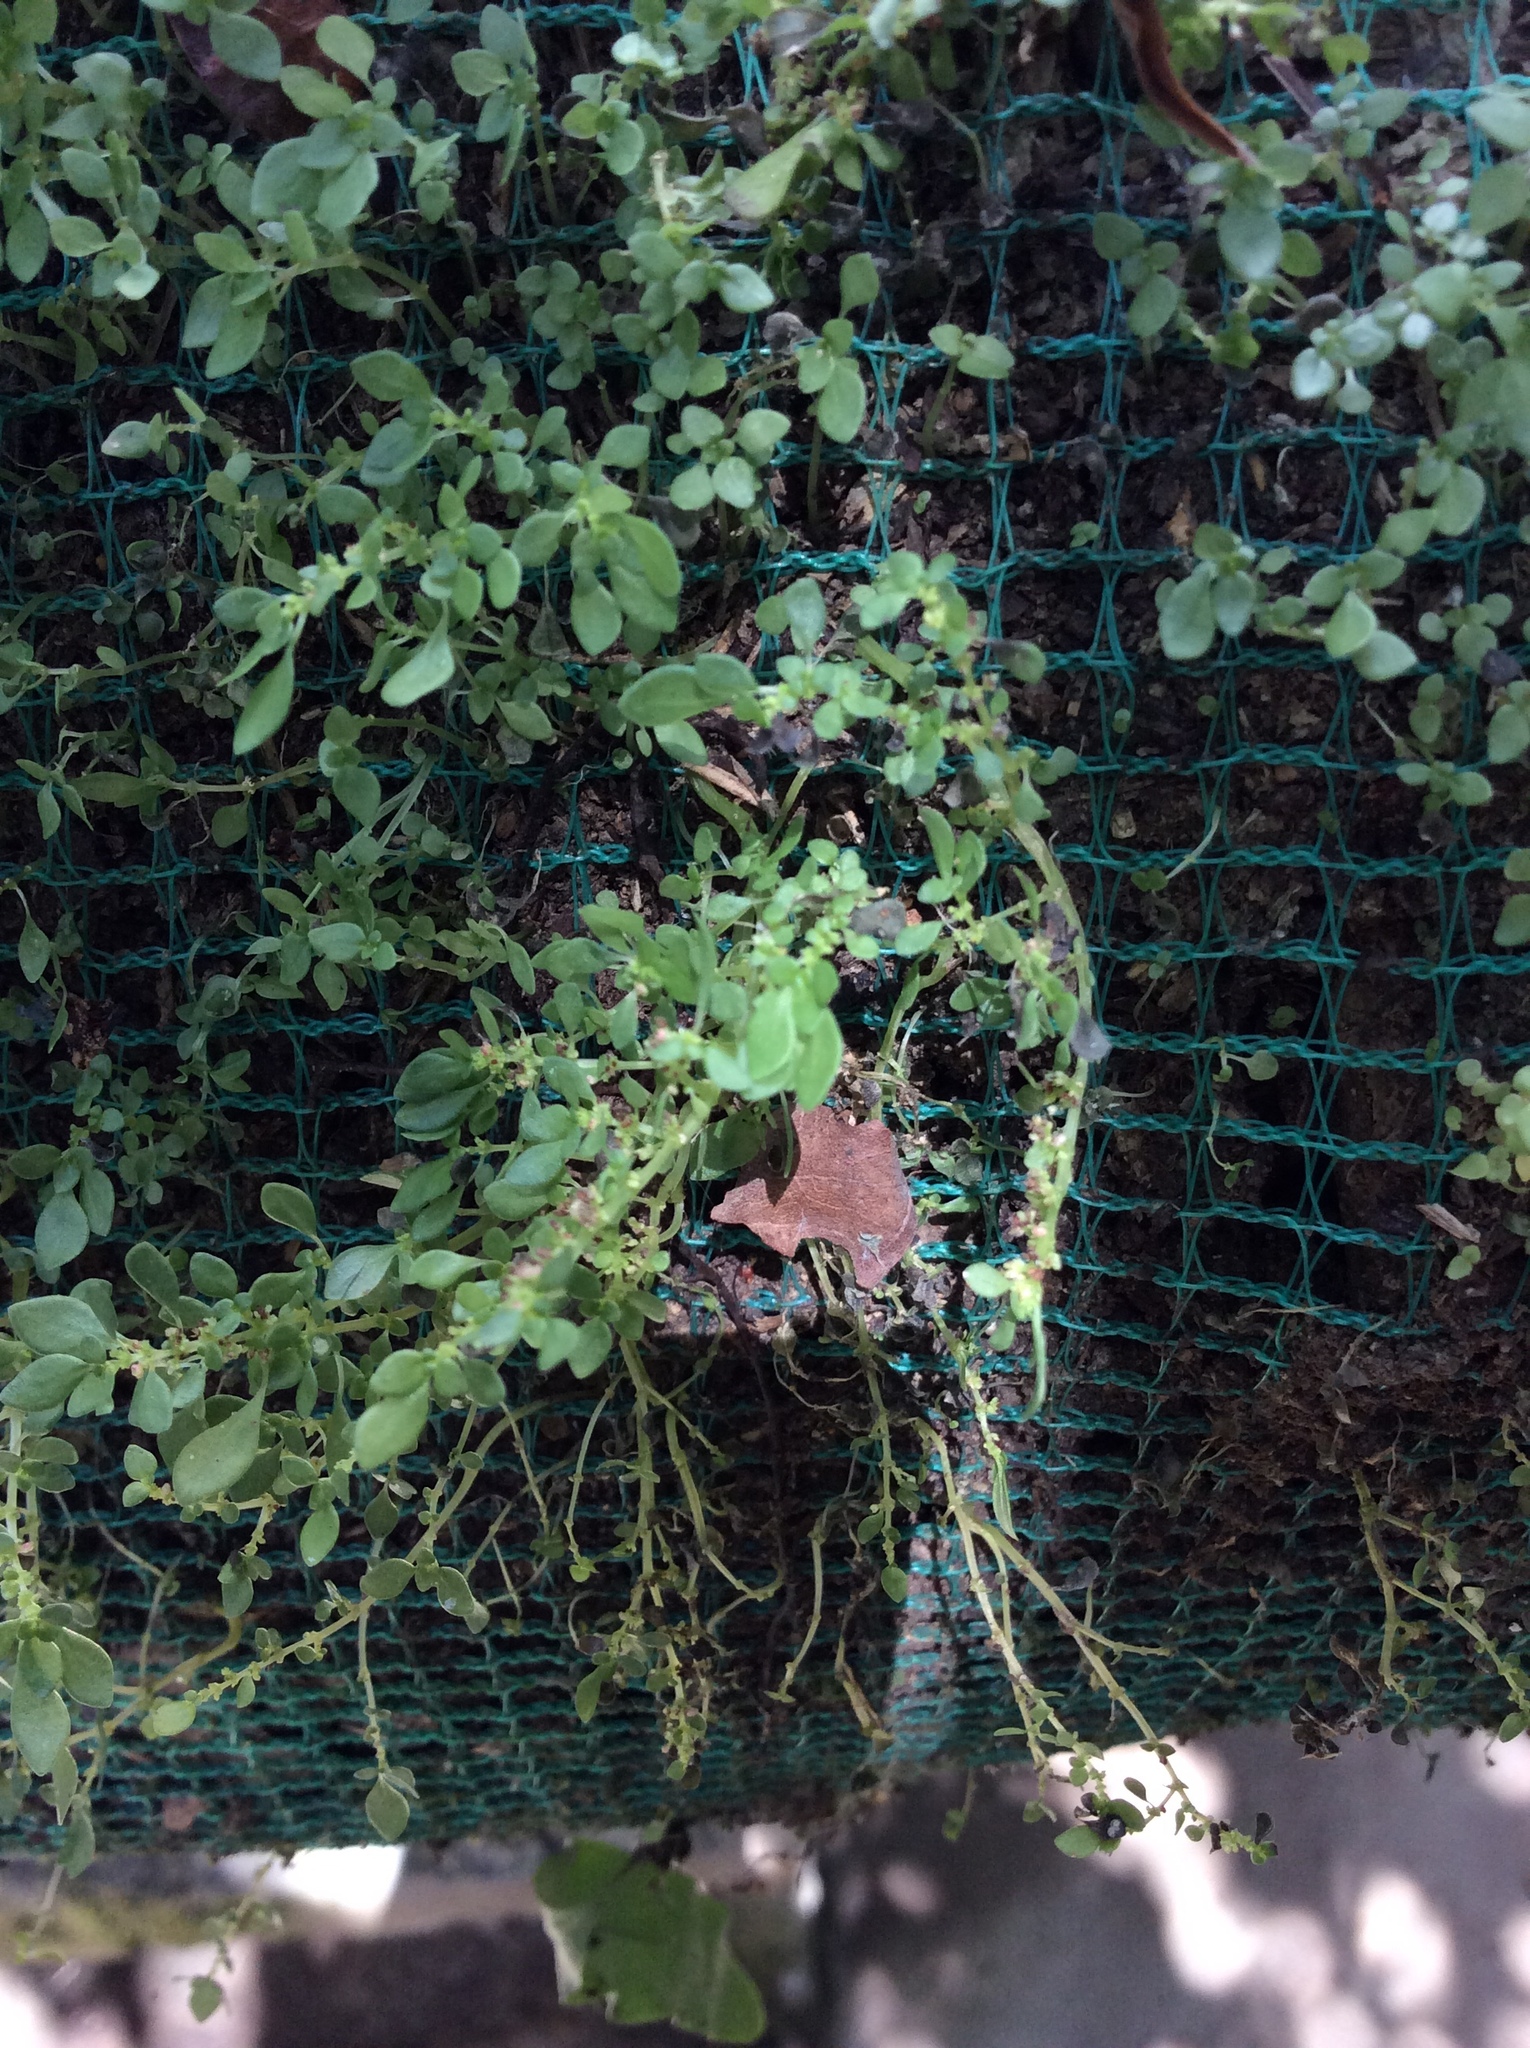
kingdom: Plantae
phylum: Tracheophyta
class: Magnoliopsida
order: Rosales
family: Urticaceae
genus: Pilea
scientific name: Pilea microphylla
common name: Artillery-plant
